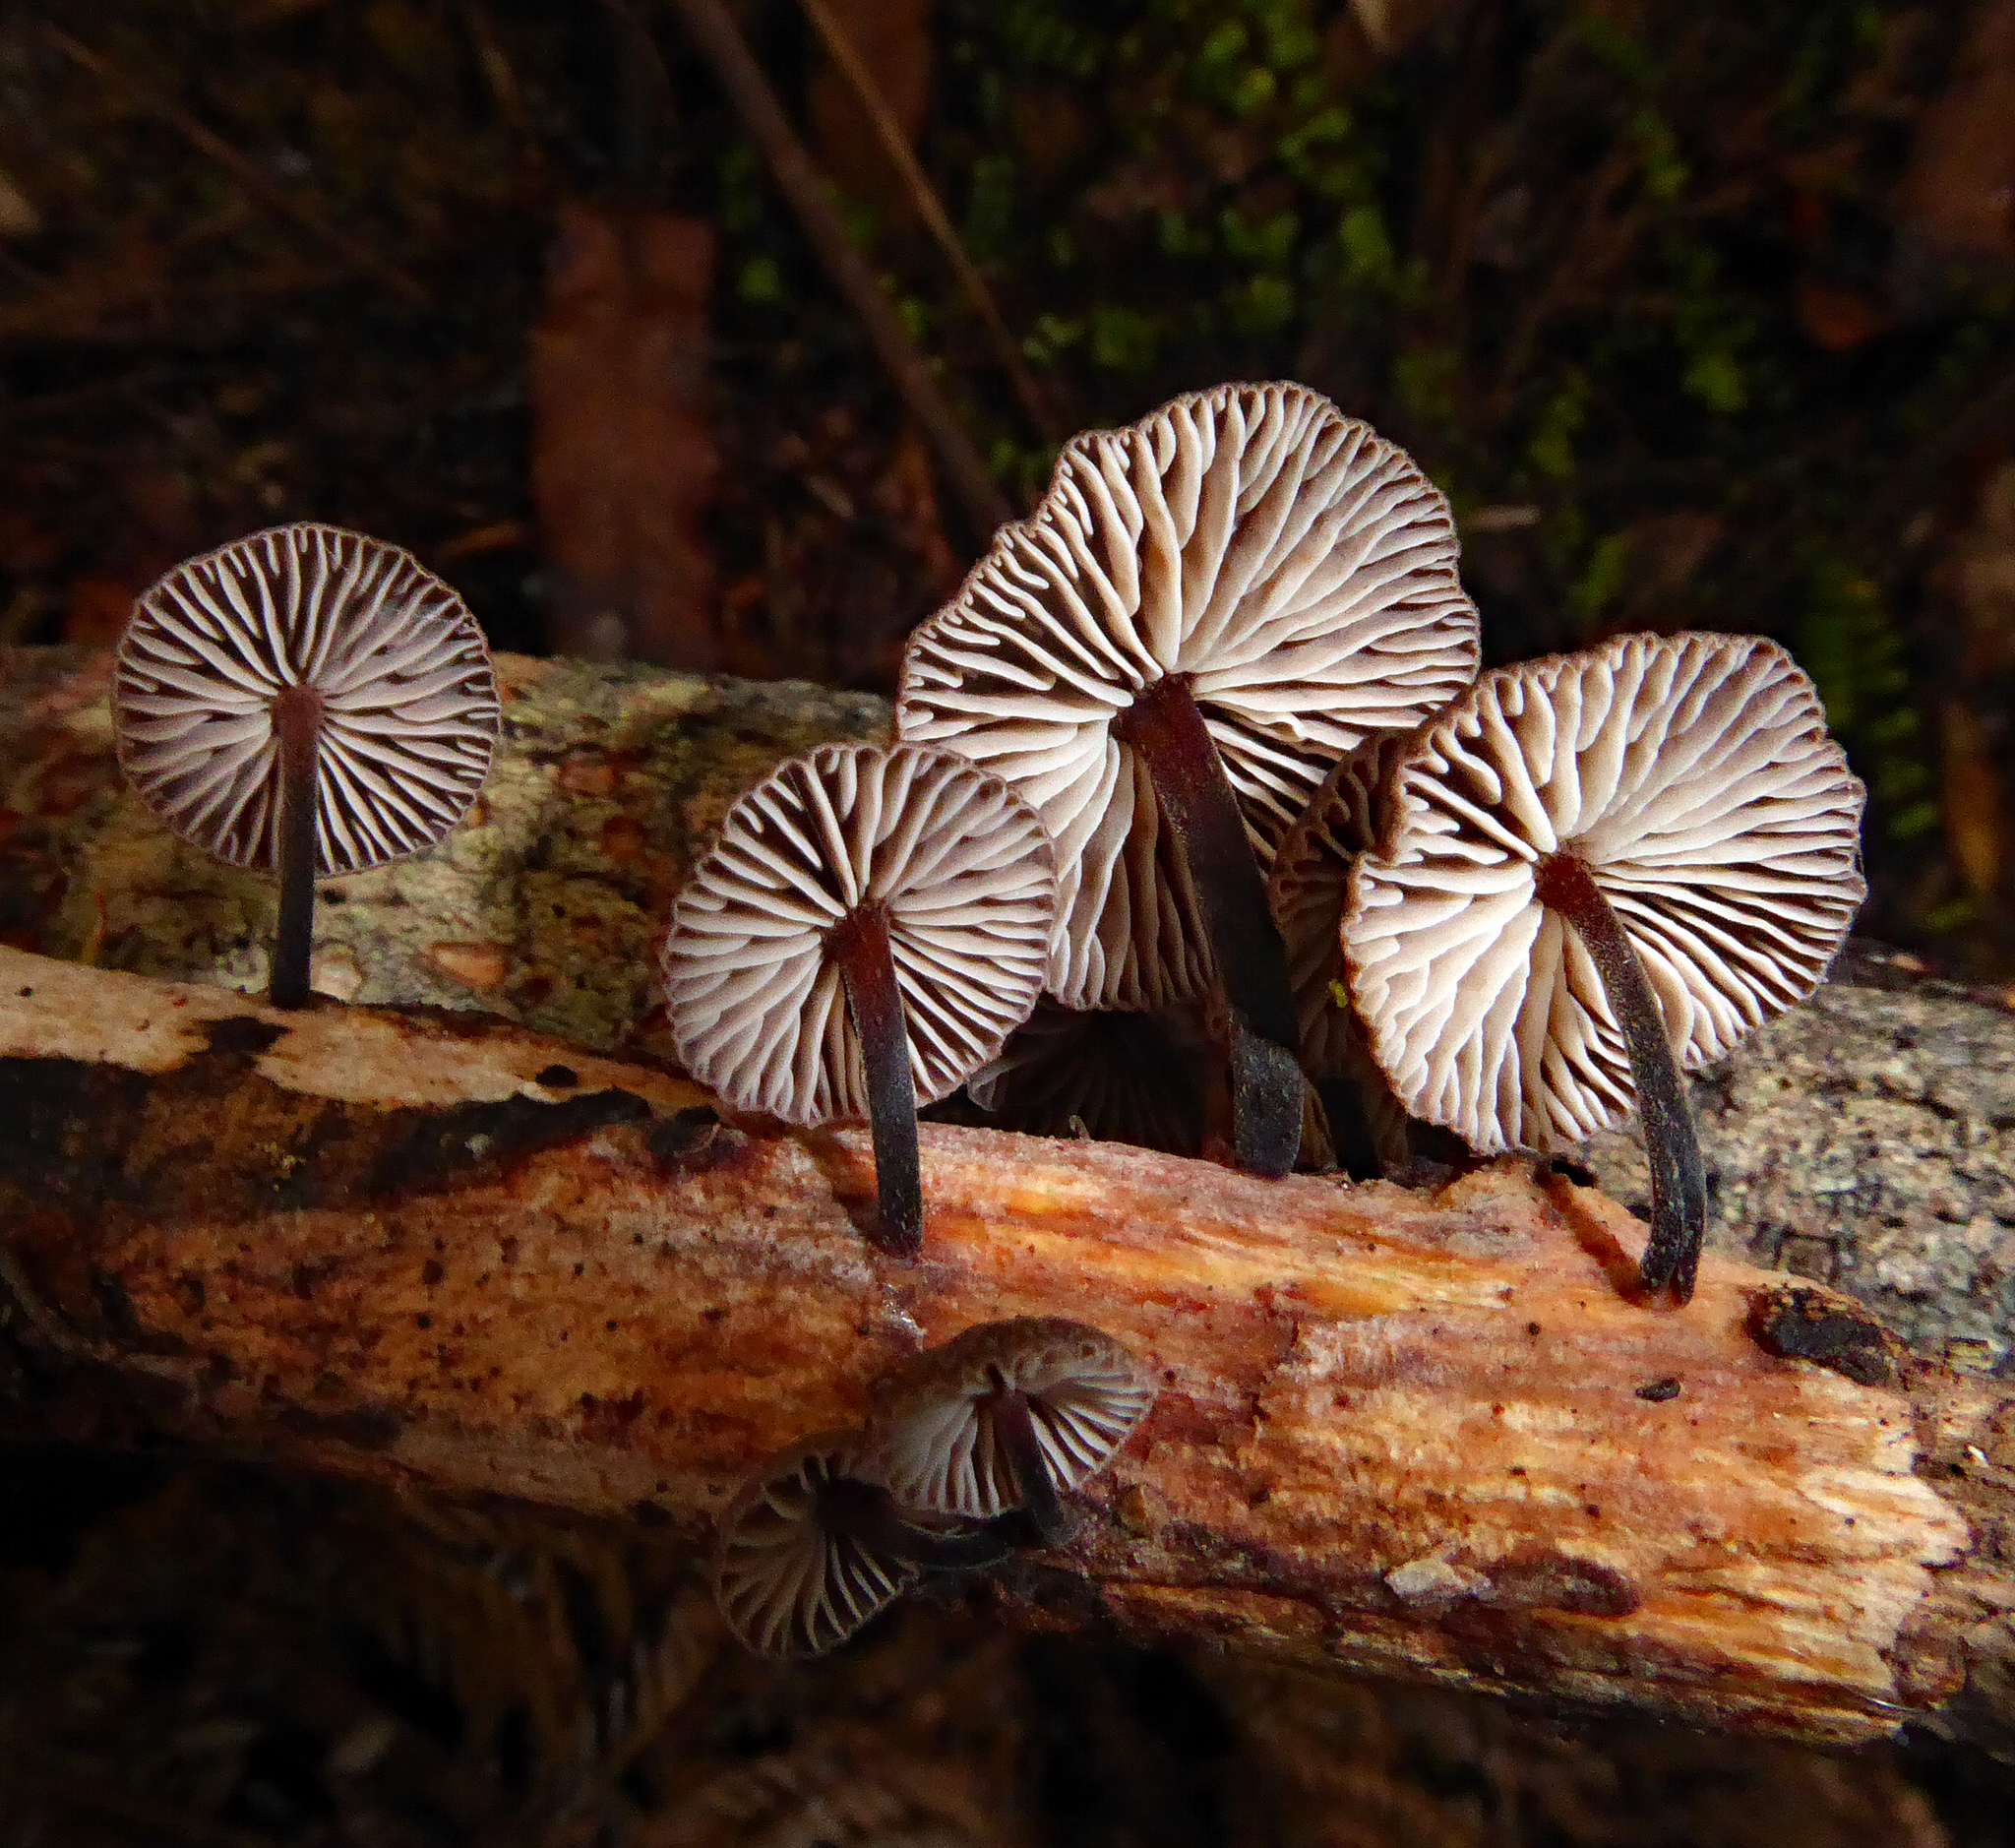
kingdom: Fungi
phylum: Basidiomycota
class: Agaricomycetes
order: Agaricales
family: Omphalotaceae
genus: Gymnopus
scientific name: Gymnopus ceraceicola
